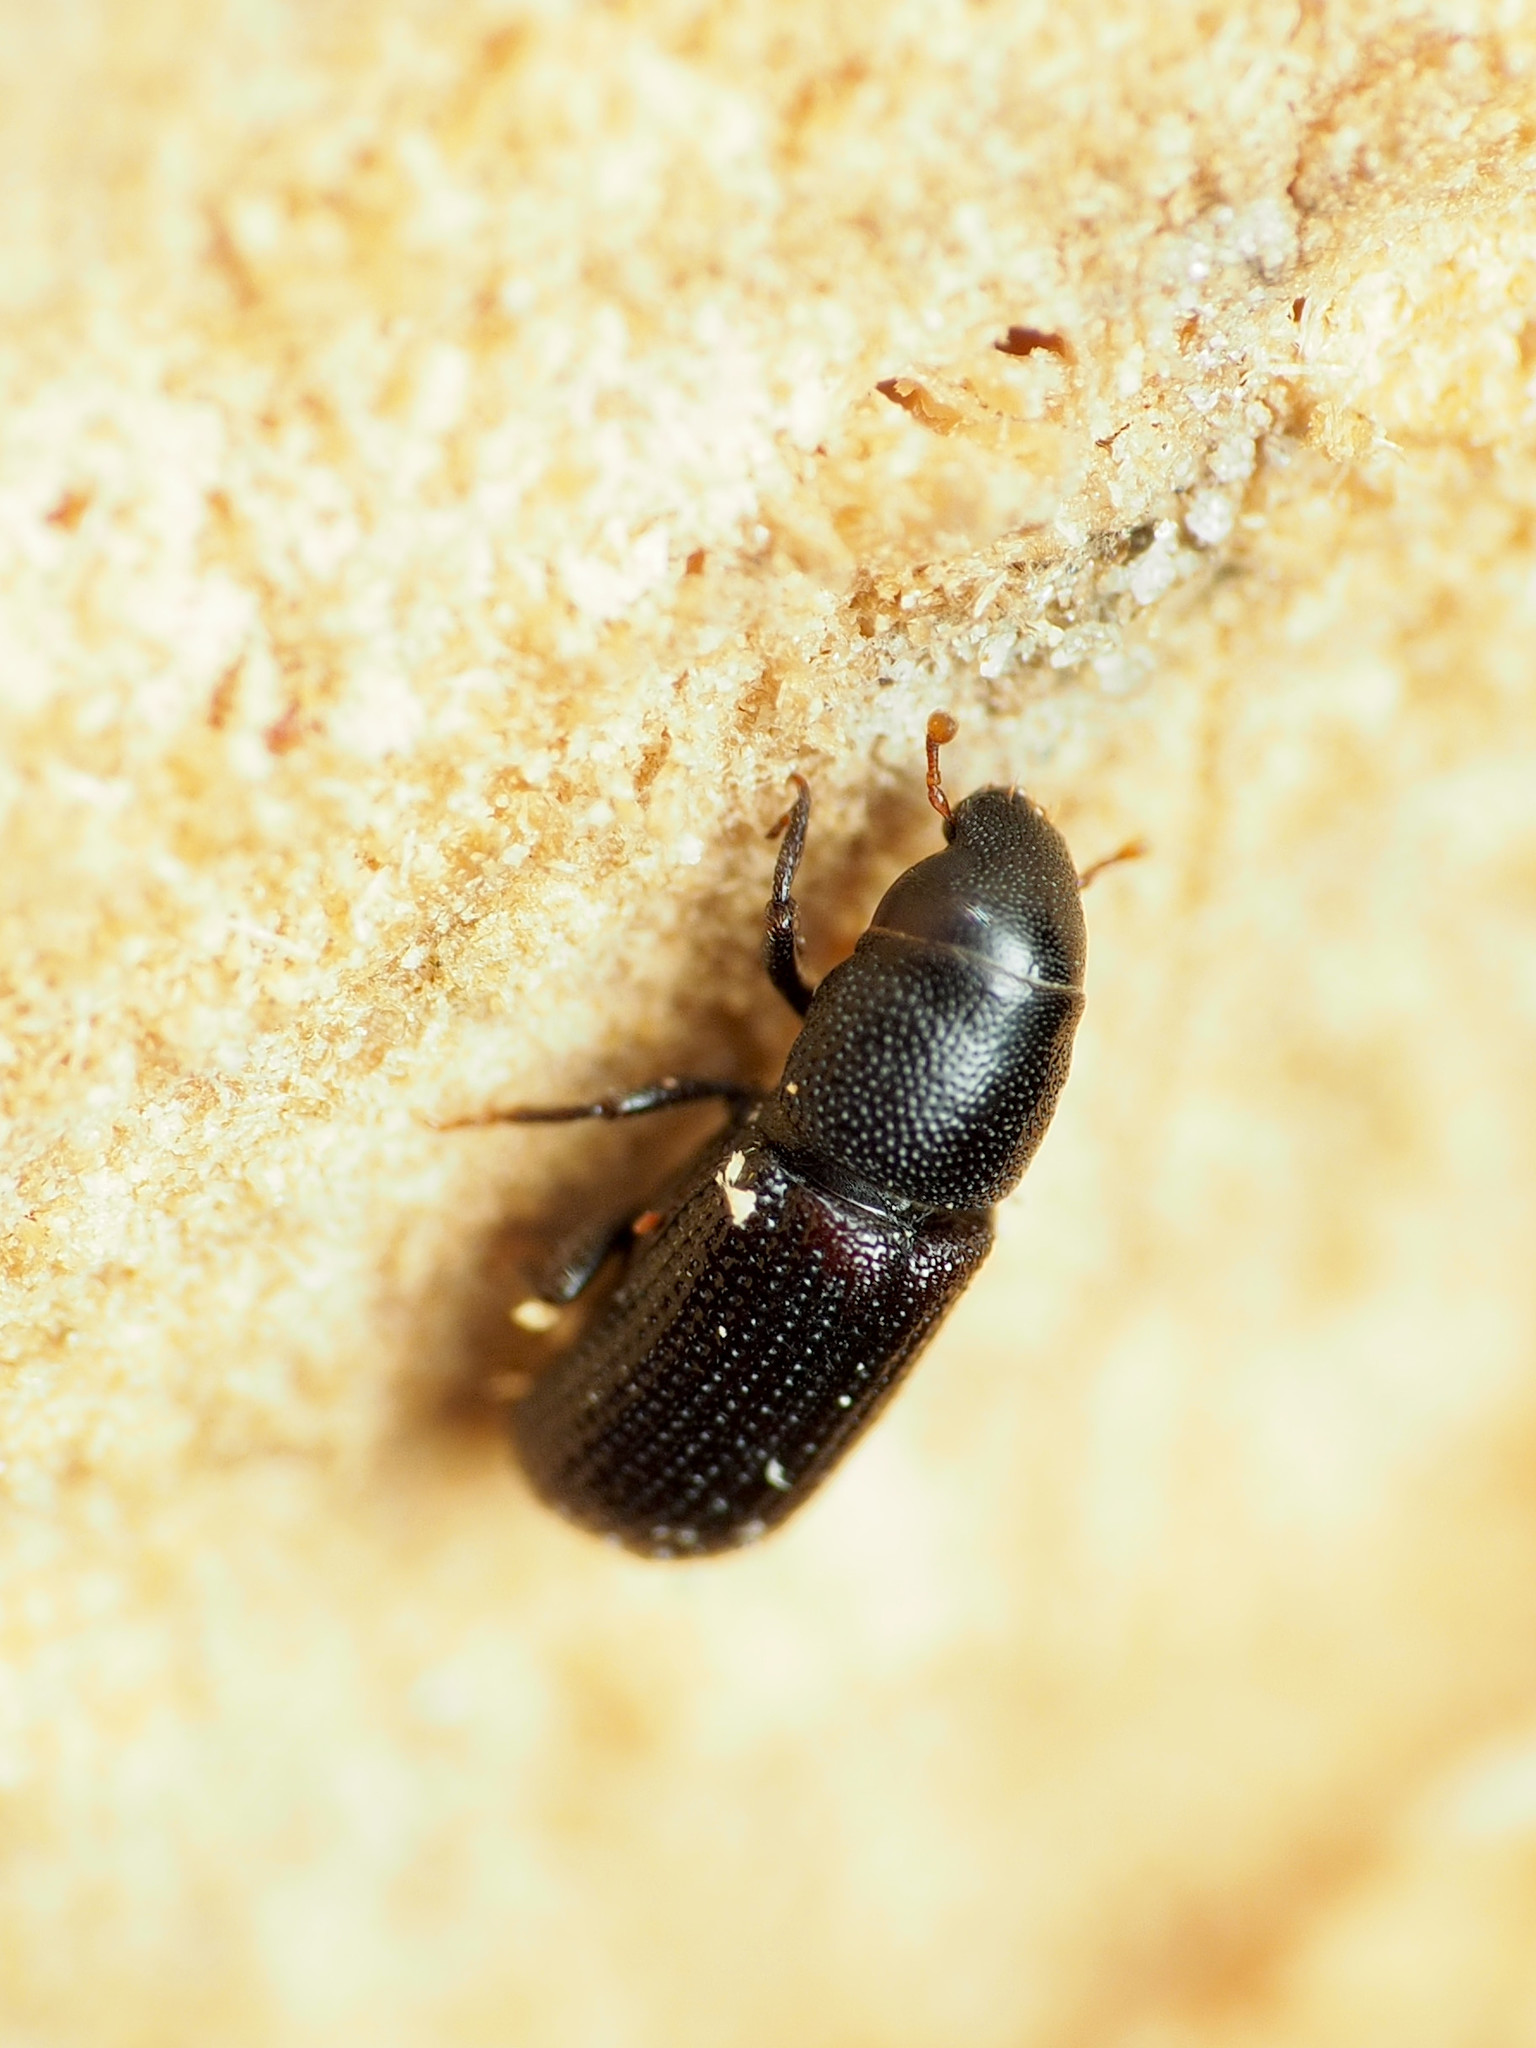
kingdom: Animalia
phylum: Arthropoda
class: Insecta
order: Coleoptera
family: Curculionidae
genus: Stenoscelis
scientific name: Stenoscelis brevis
